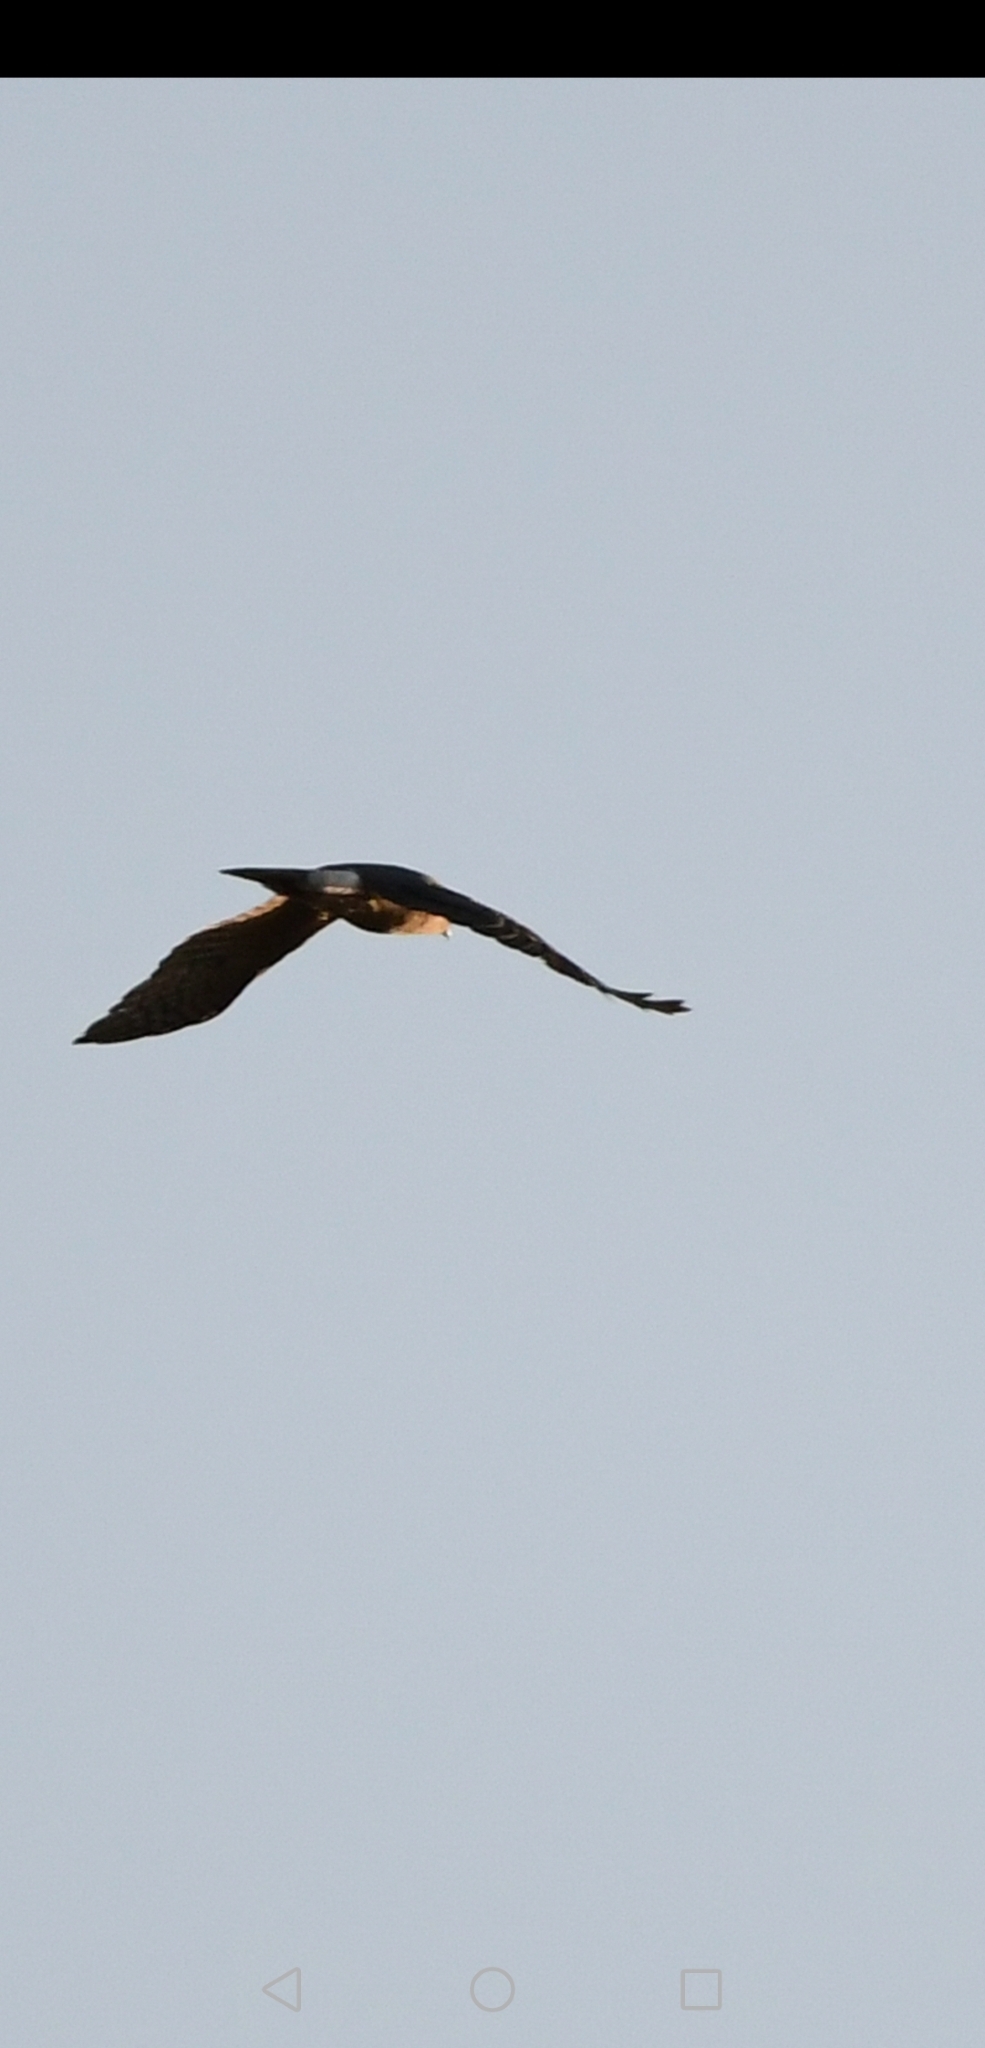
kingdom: Animalia
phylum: Chordata
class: Aves
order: Accipitriformes
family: Accipitridae
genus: Circus
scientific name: Circus cyaneus
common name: Hen harrier
